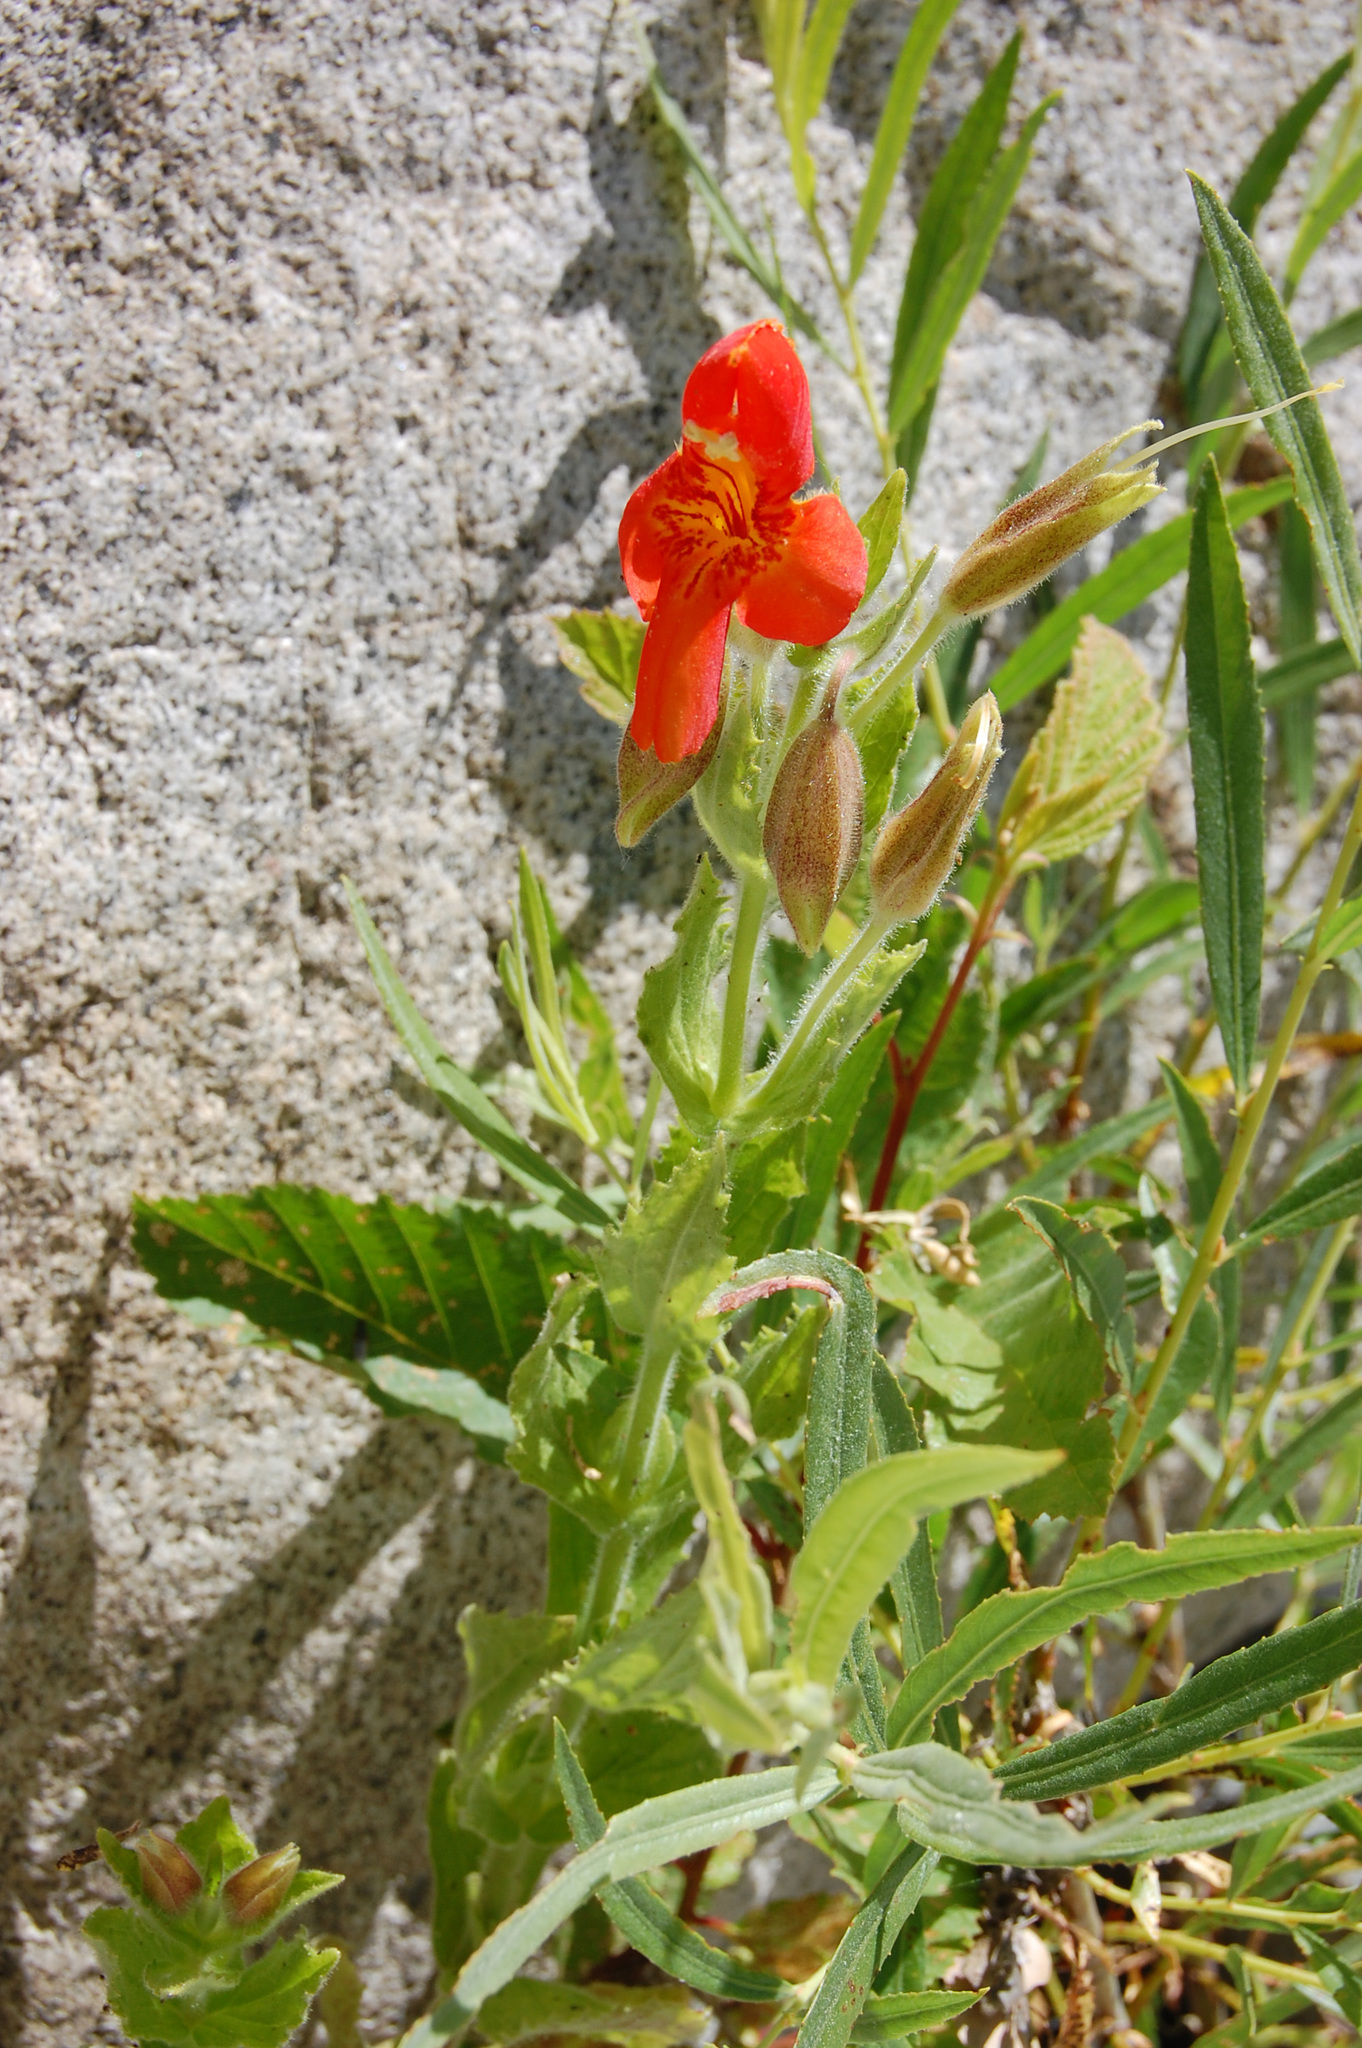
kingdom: Plantae
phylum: Tracheophyta
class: Magnoliopsida
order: Lamiales
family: Phrymaceae
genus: Erythranthe
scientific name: Erythranthe cardinalis
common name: Scarlet monkey-flower
